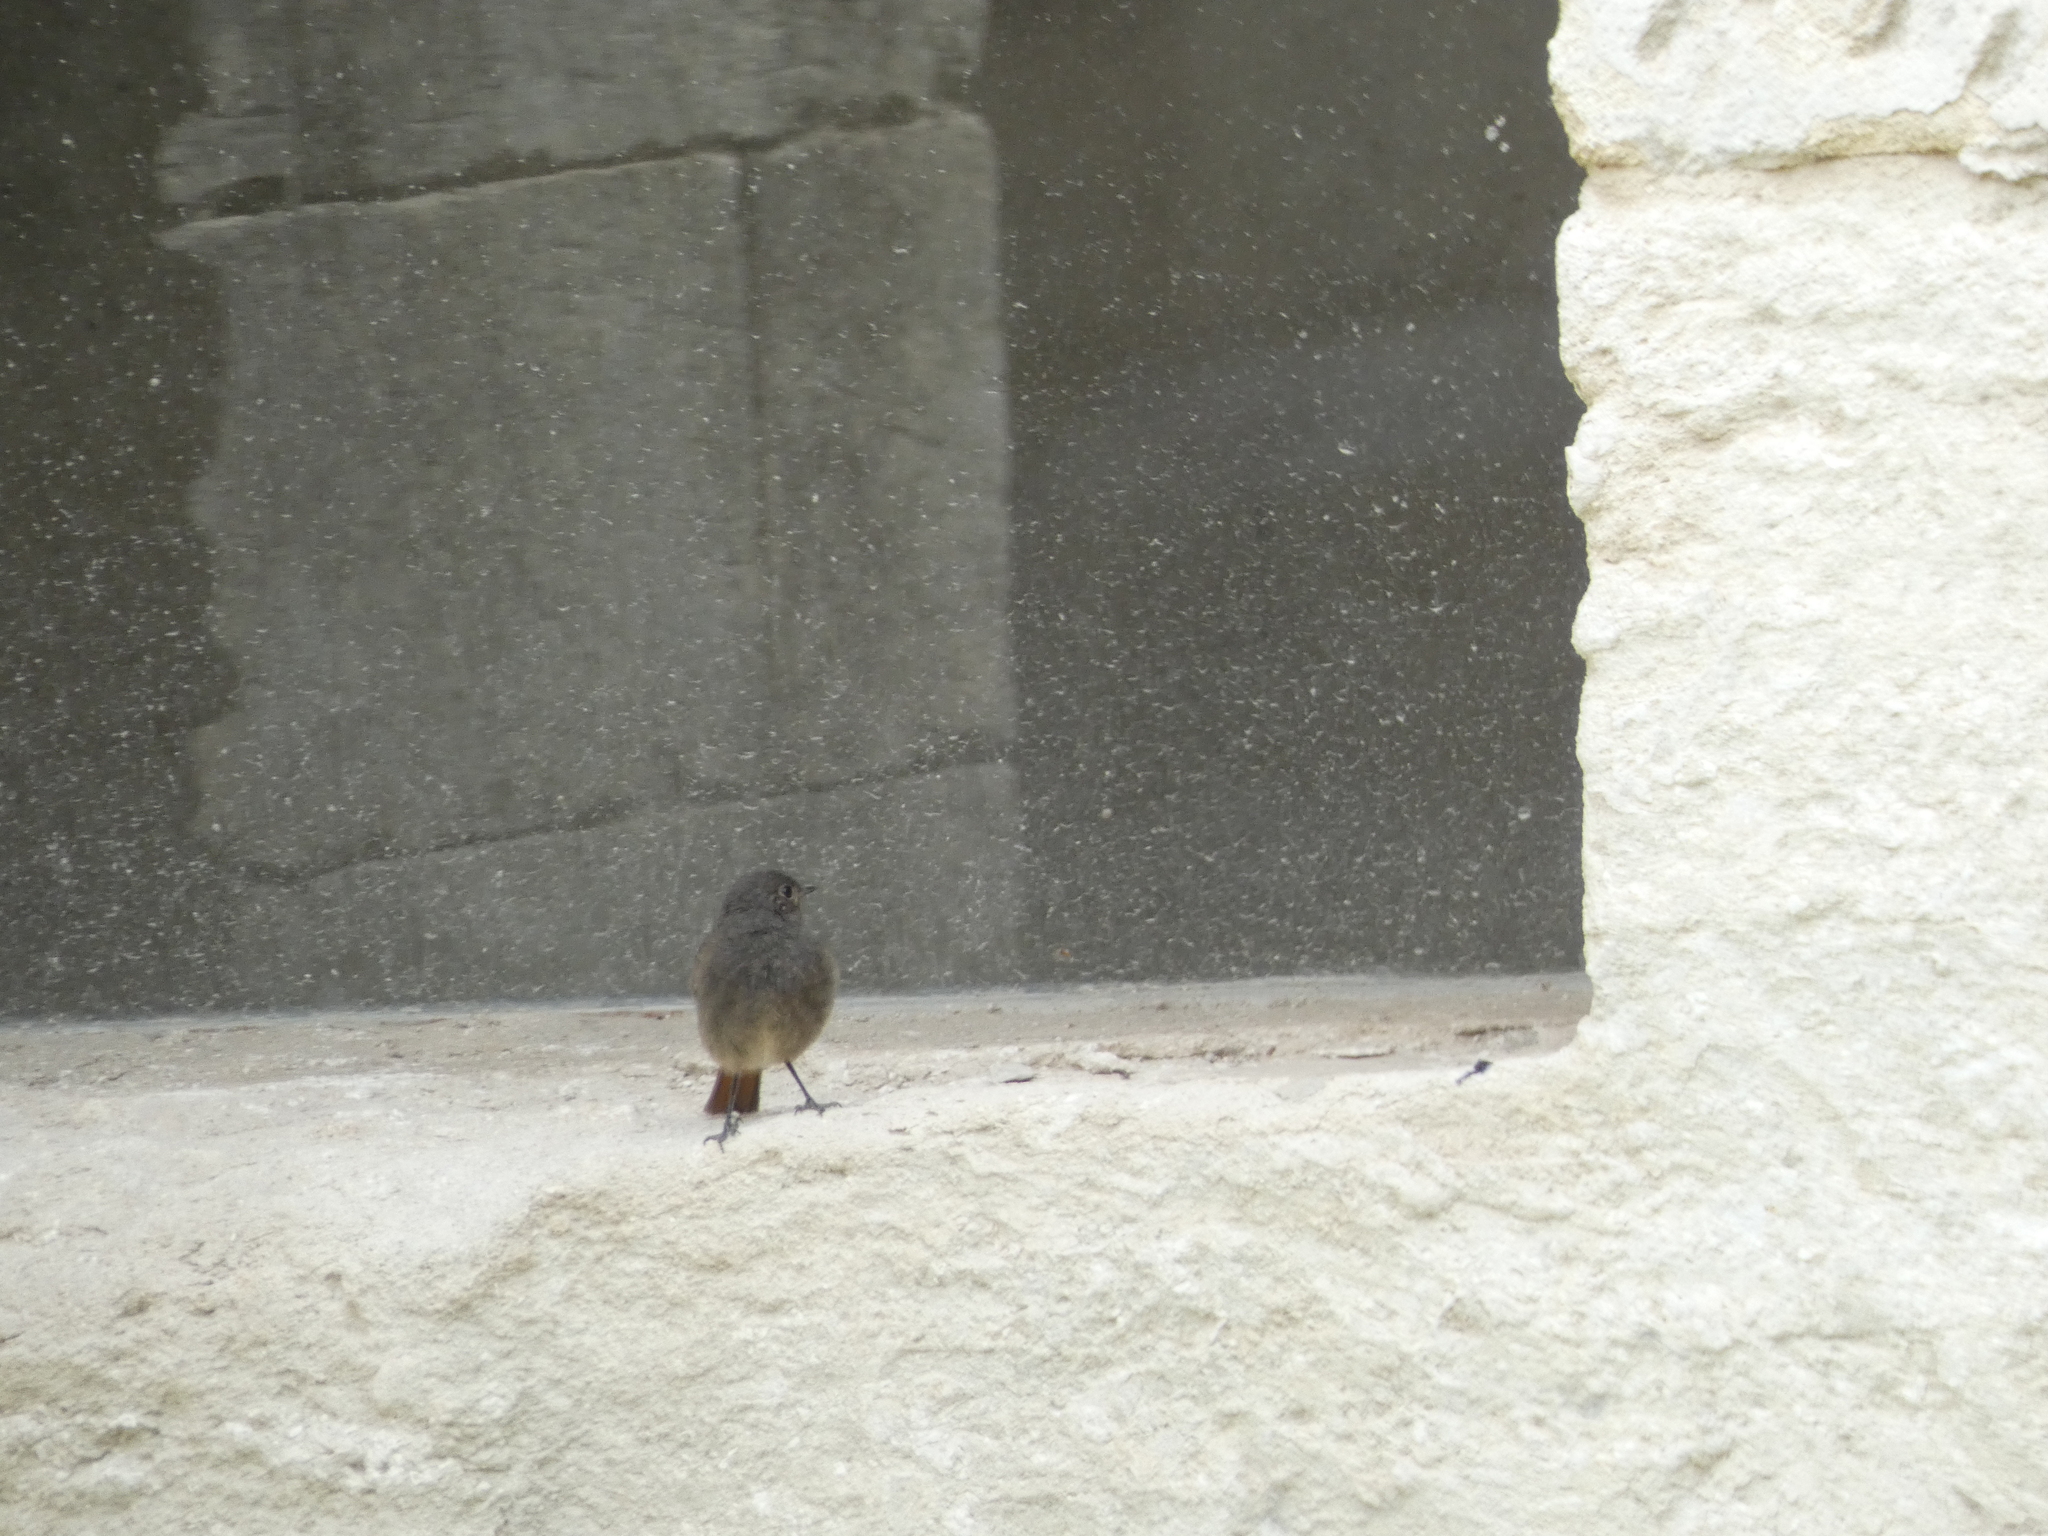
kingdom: Animalia
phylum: Chordata
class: Aves
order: Passeriformes
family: Muscicapidae
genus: Phoenicurus
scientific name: Phoenicurus ochruros
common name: Black redstart
